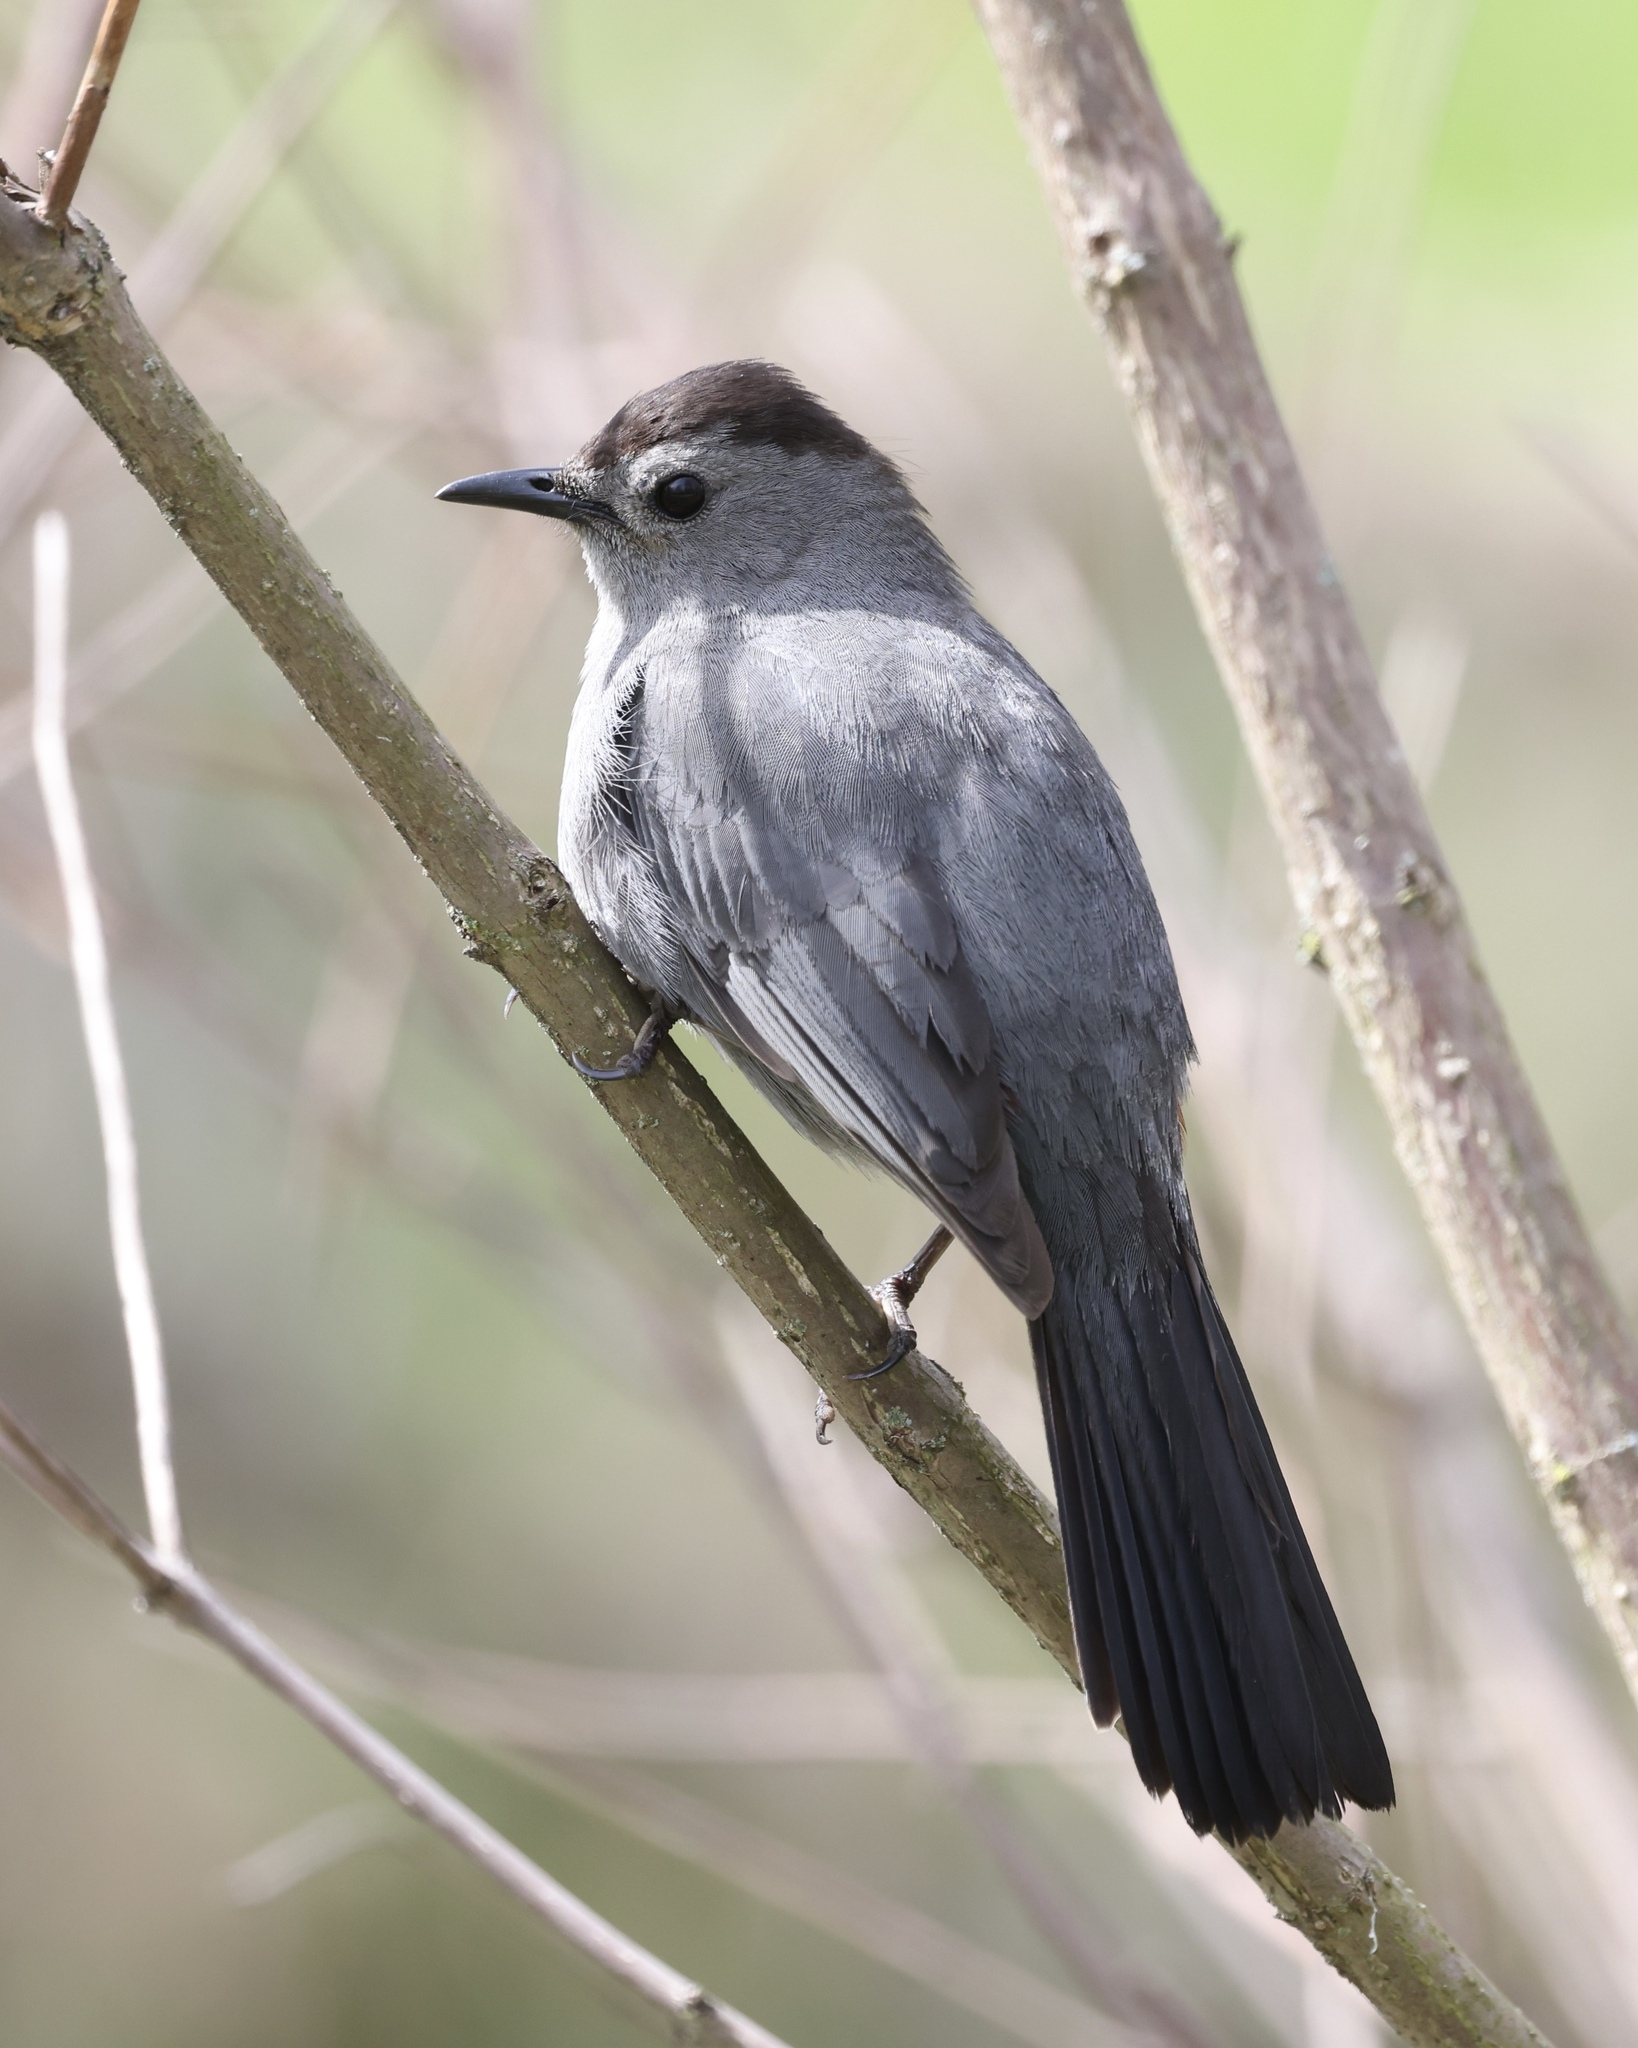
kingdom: Animalia
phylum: Chordata
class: Aves
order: Passeriformes
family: Mimidae
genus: Dumetella
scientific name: Dumetella carolinensis
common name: Gray catbird
